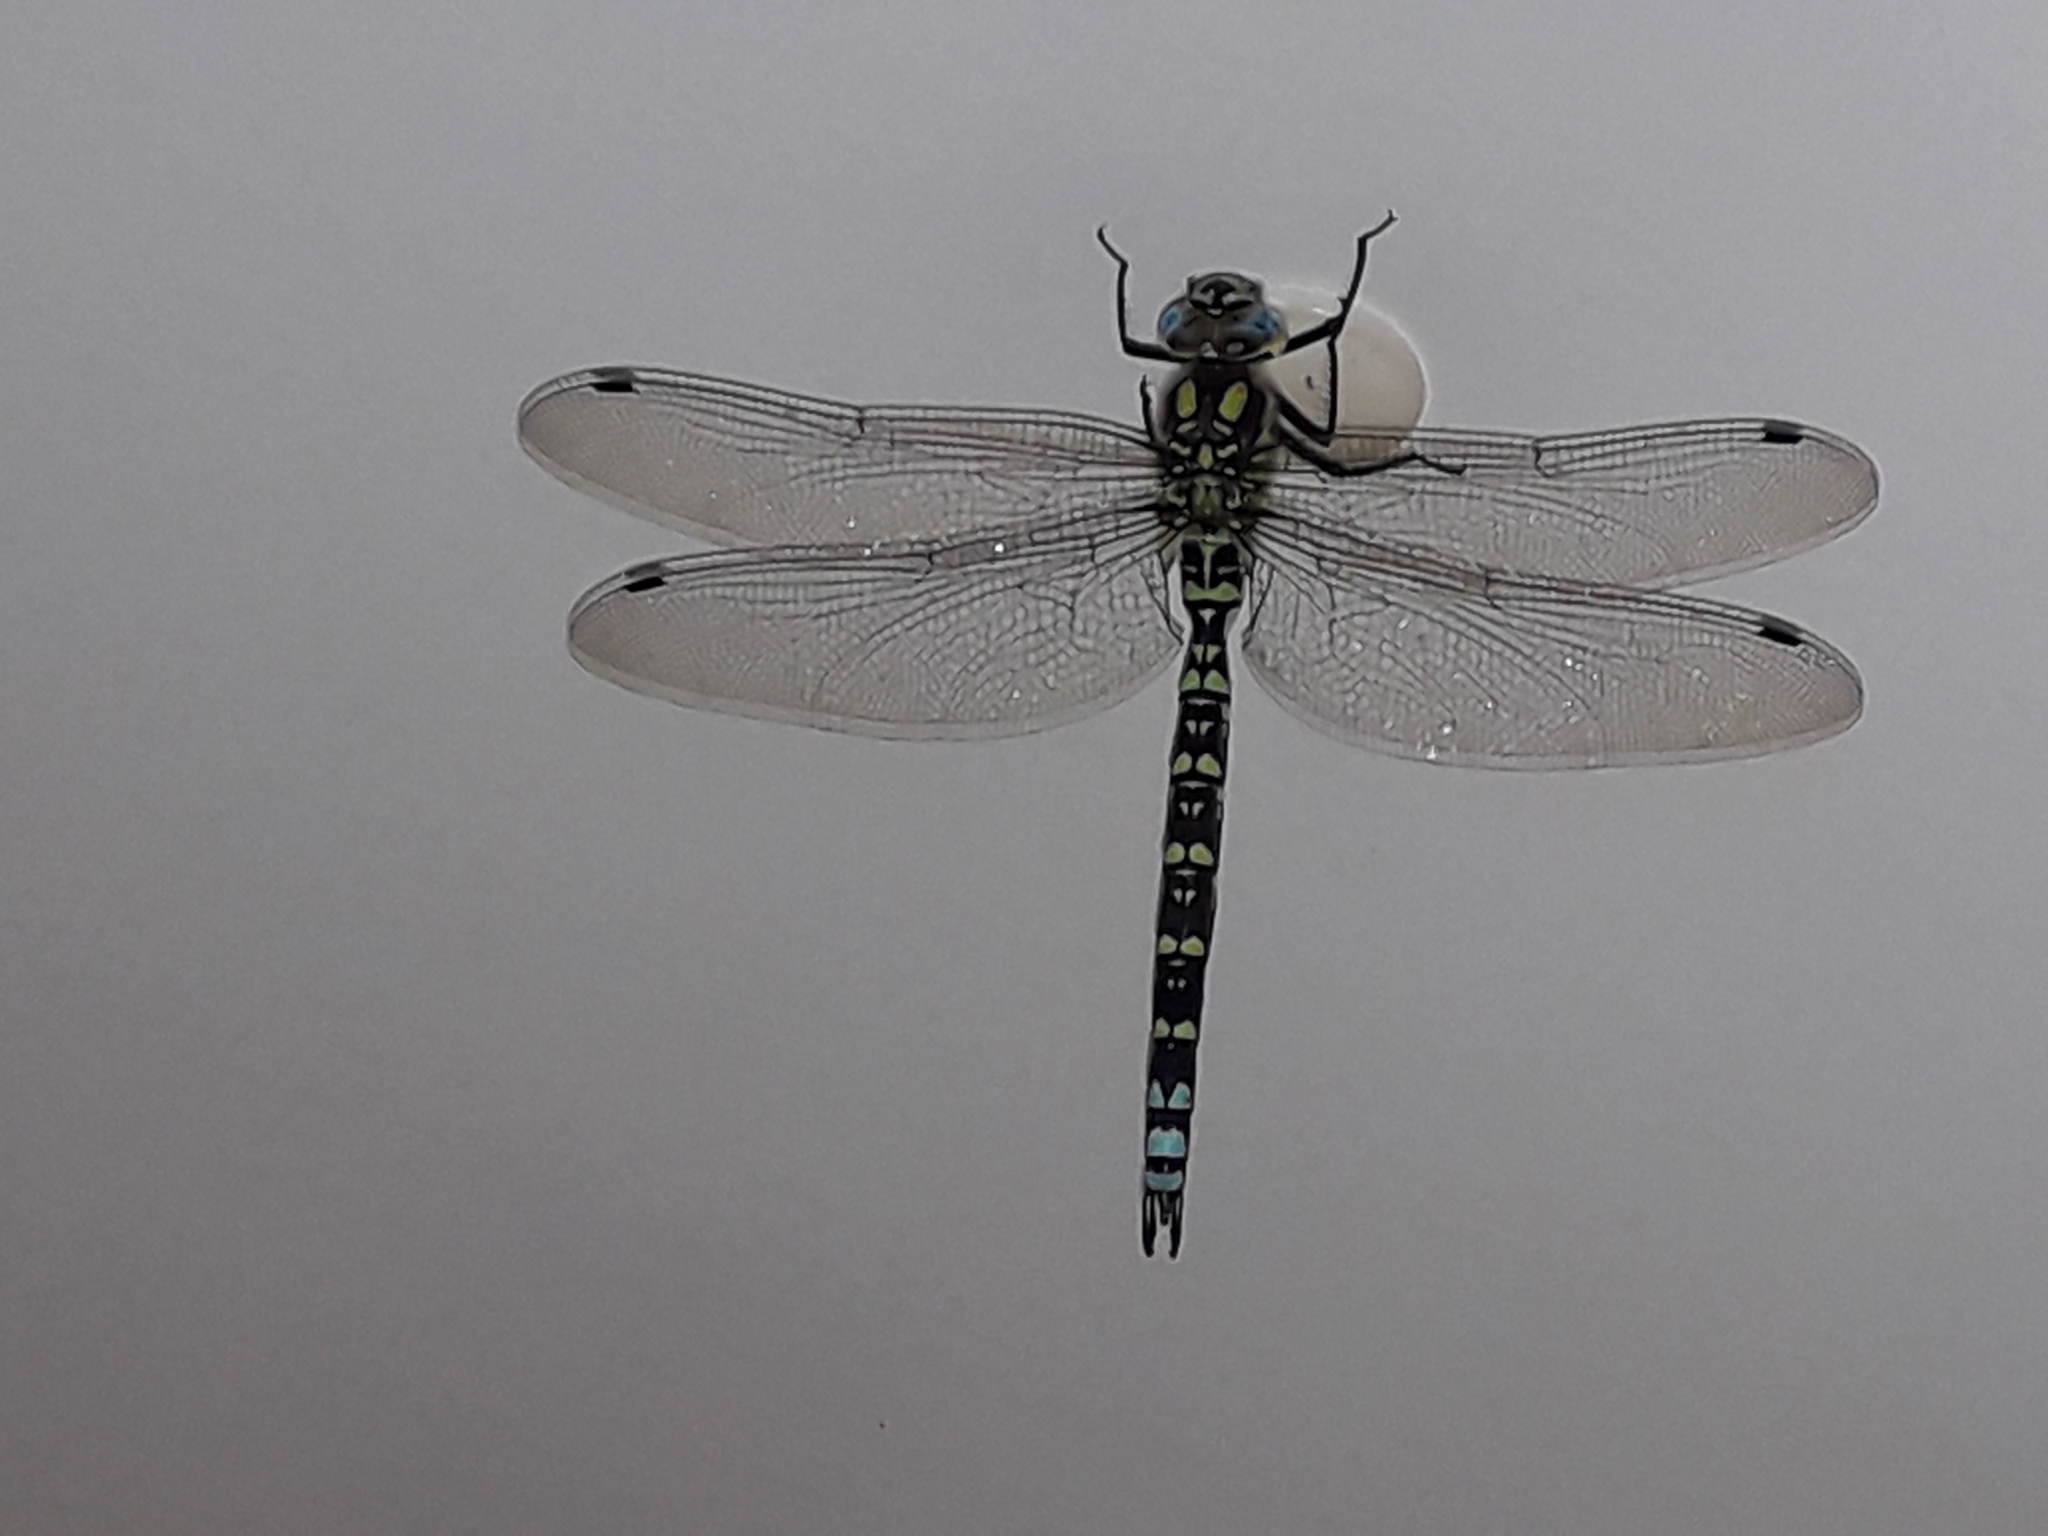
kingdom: Animalia
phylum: Arthropoda
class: Insecta
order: Odonata
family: Aeshnidae
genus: Aeshna
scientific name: Aeshna cyanea
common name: Southern hawker
